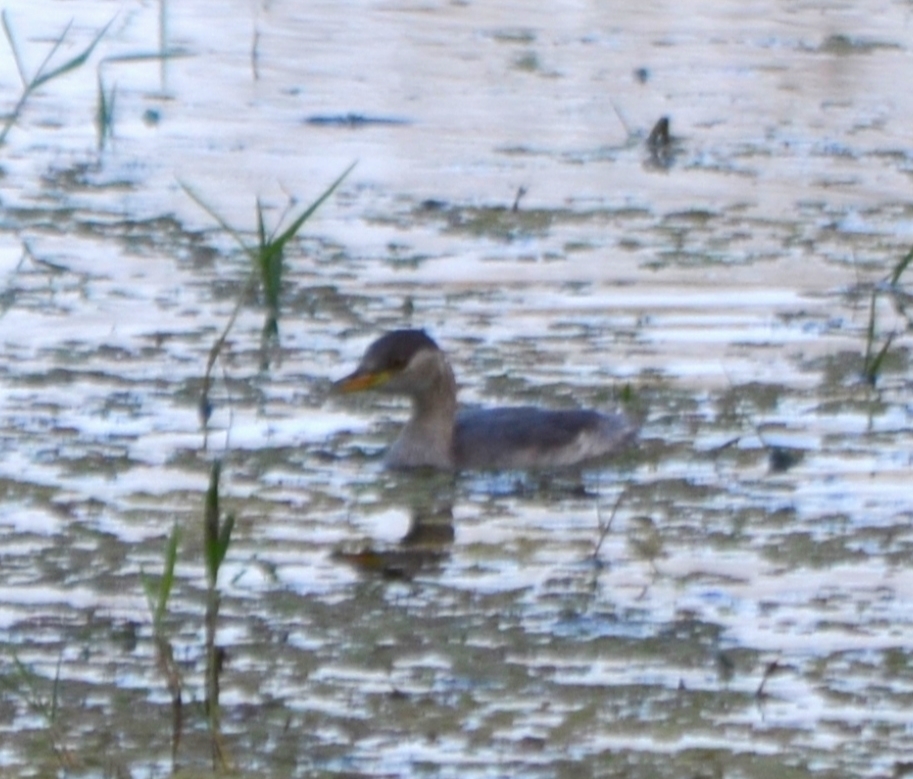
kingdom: Animalia
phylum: Chordata
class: Aves
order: Podicipediformes
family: Podicipedidae
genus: Tachybaptus
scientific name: Tachybaptus ruficollis
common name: Little grebe
